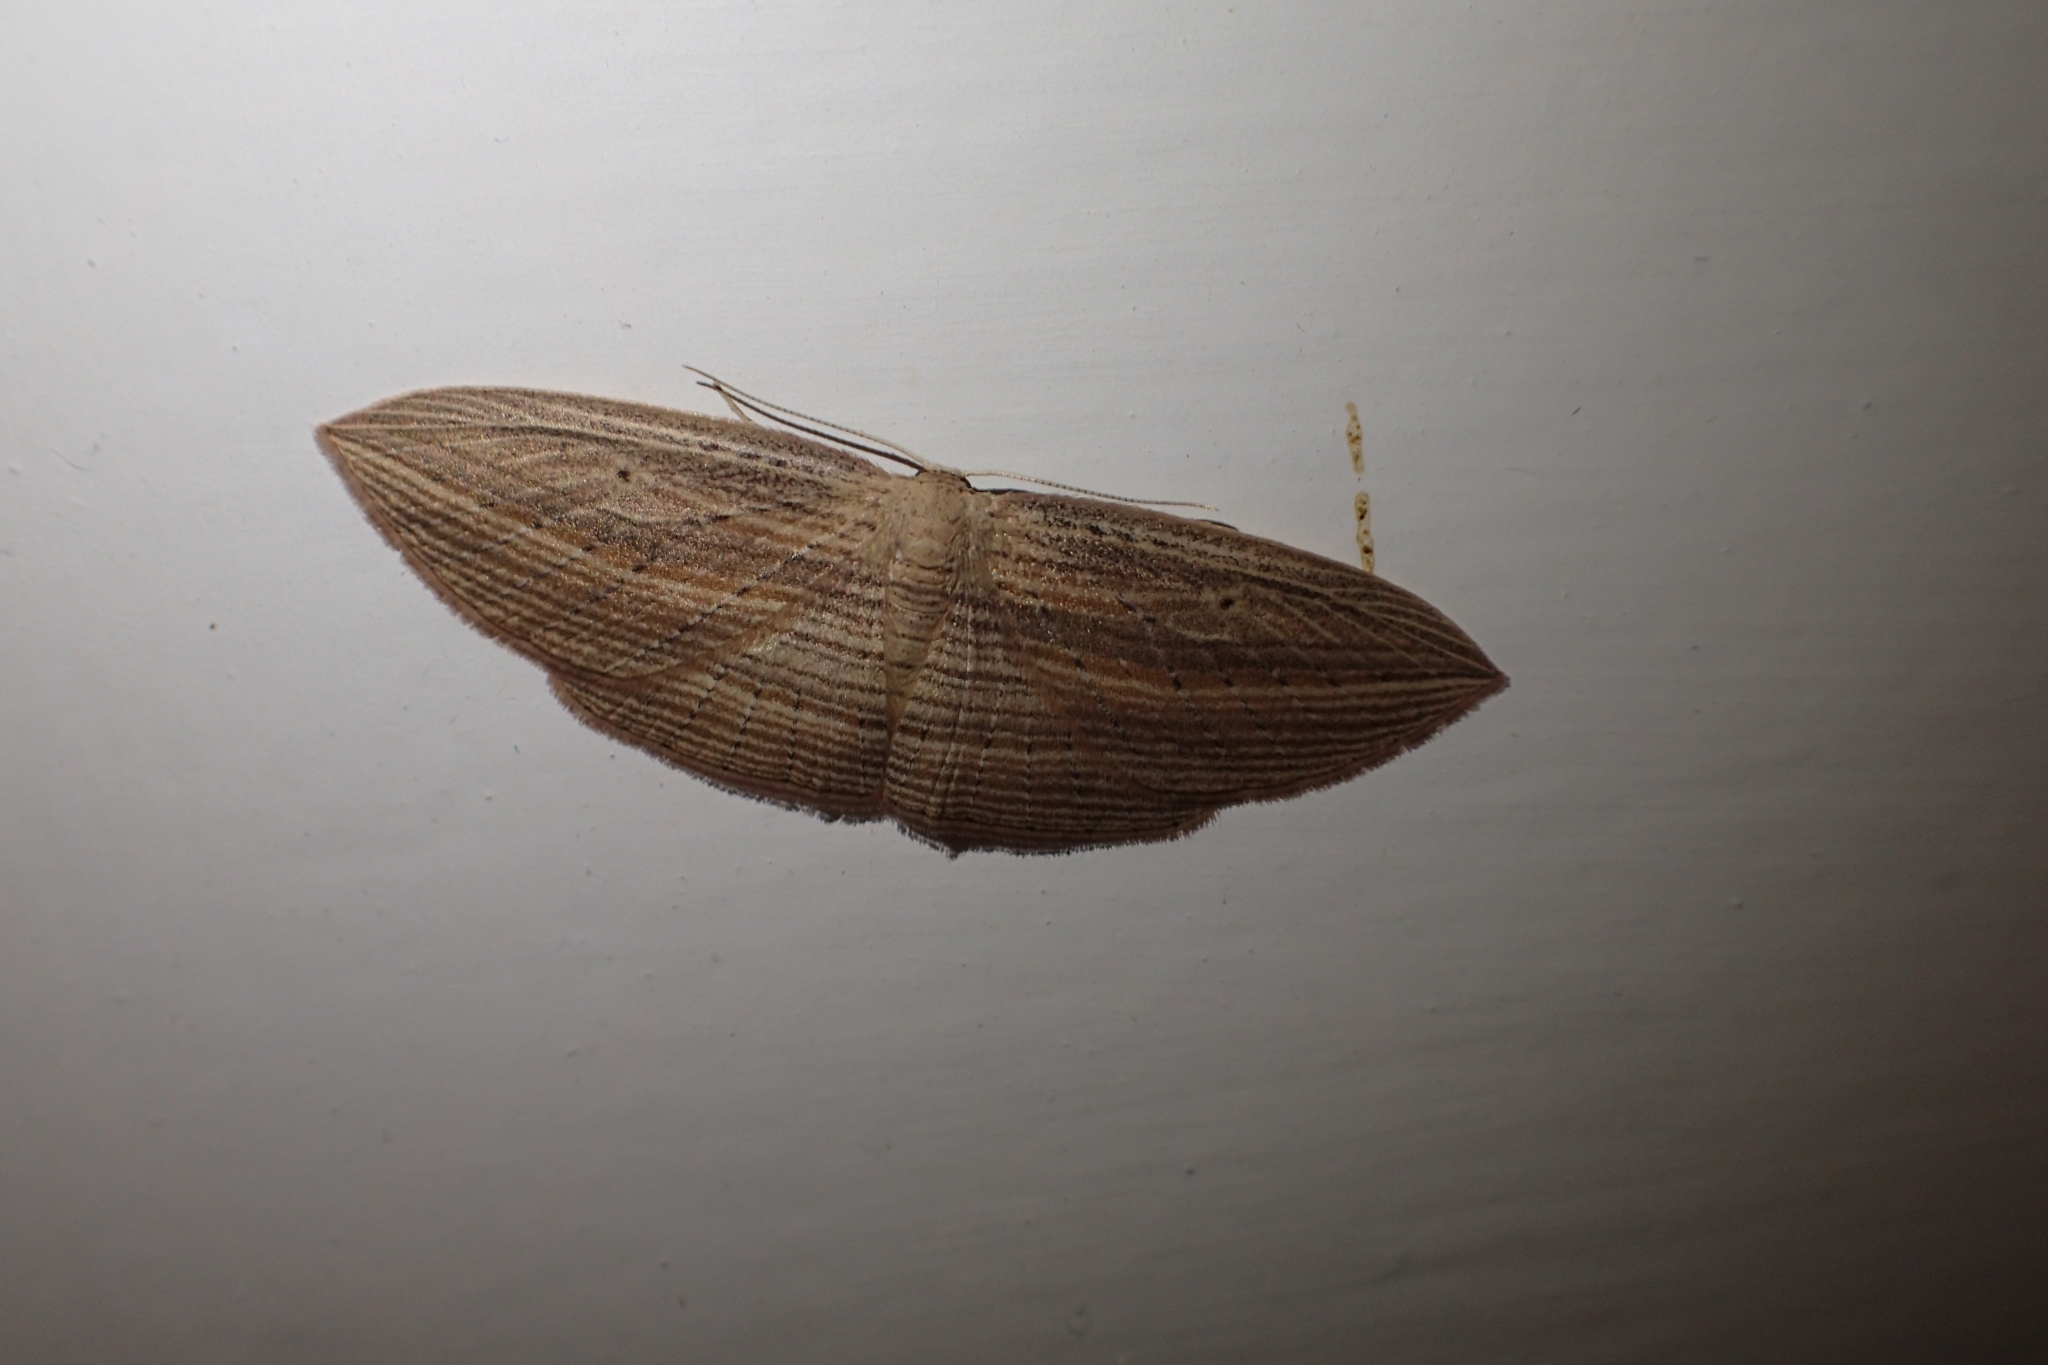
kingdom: Animalia
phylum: Arthropoda
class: Insecta
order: Lepidoptera
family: Geometridae
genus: Epiphryne
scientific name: Epiphryne verriculata
